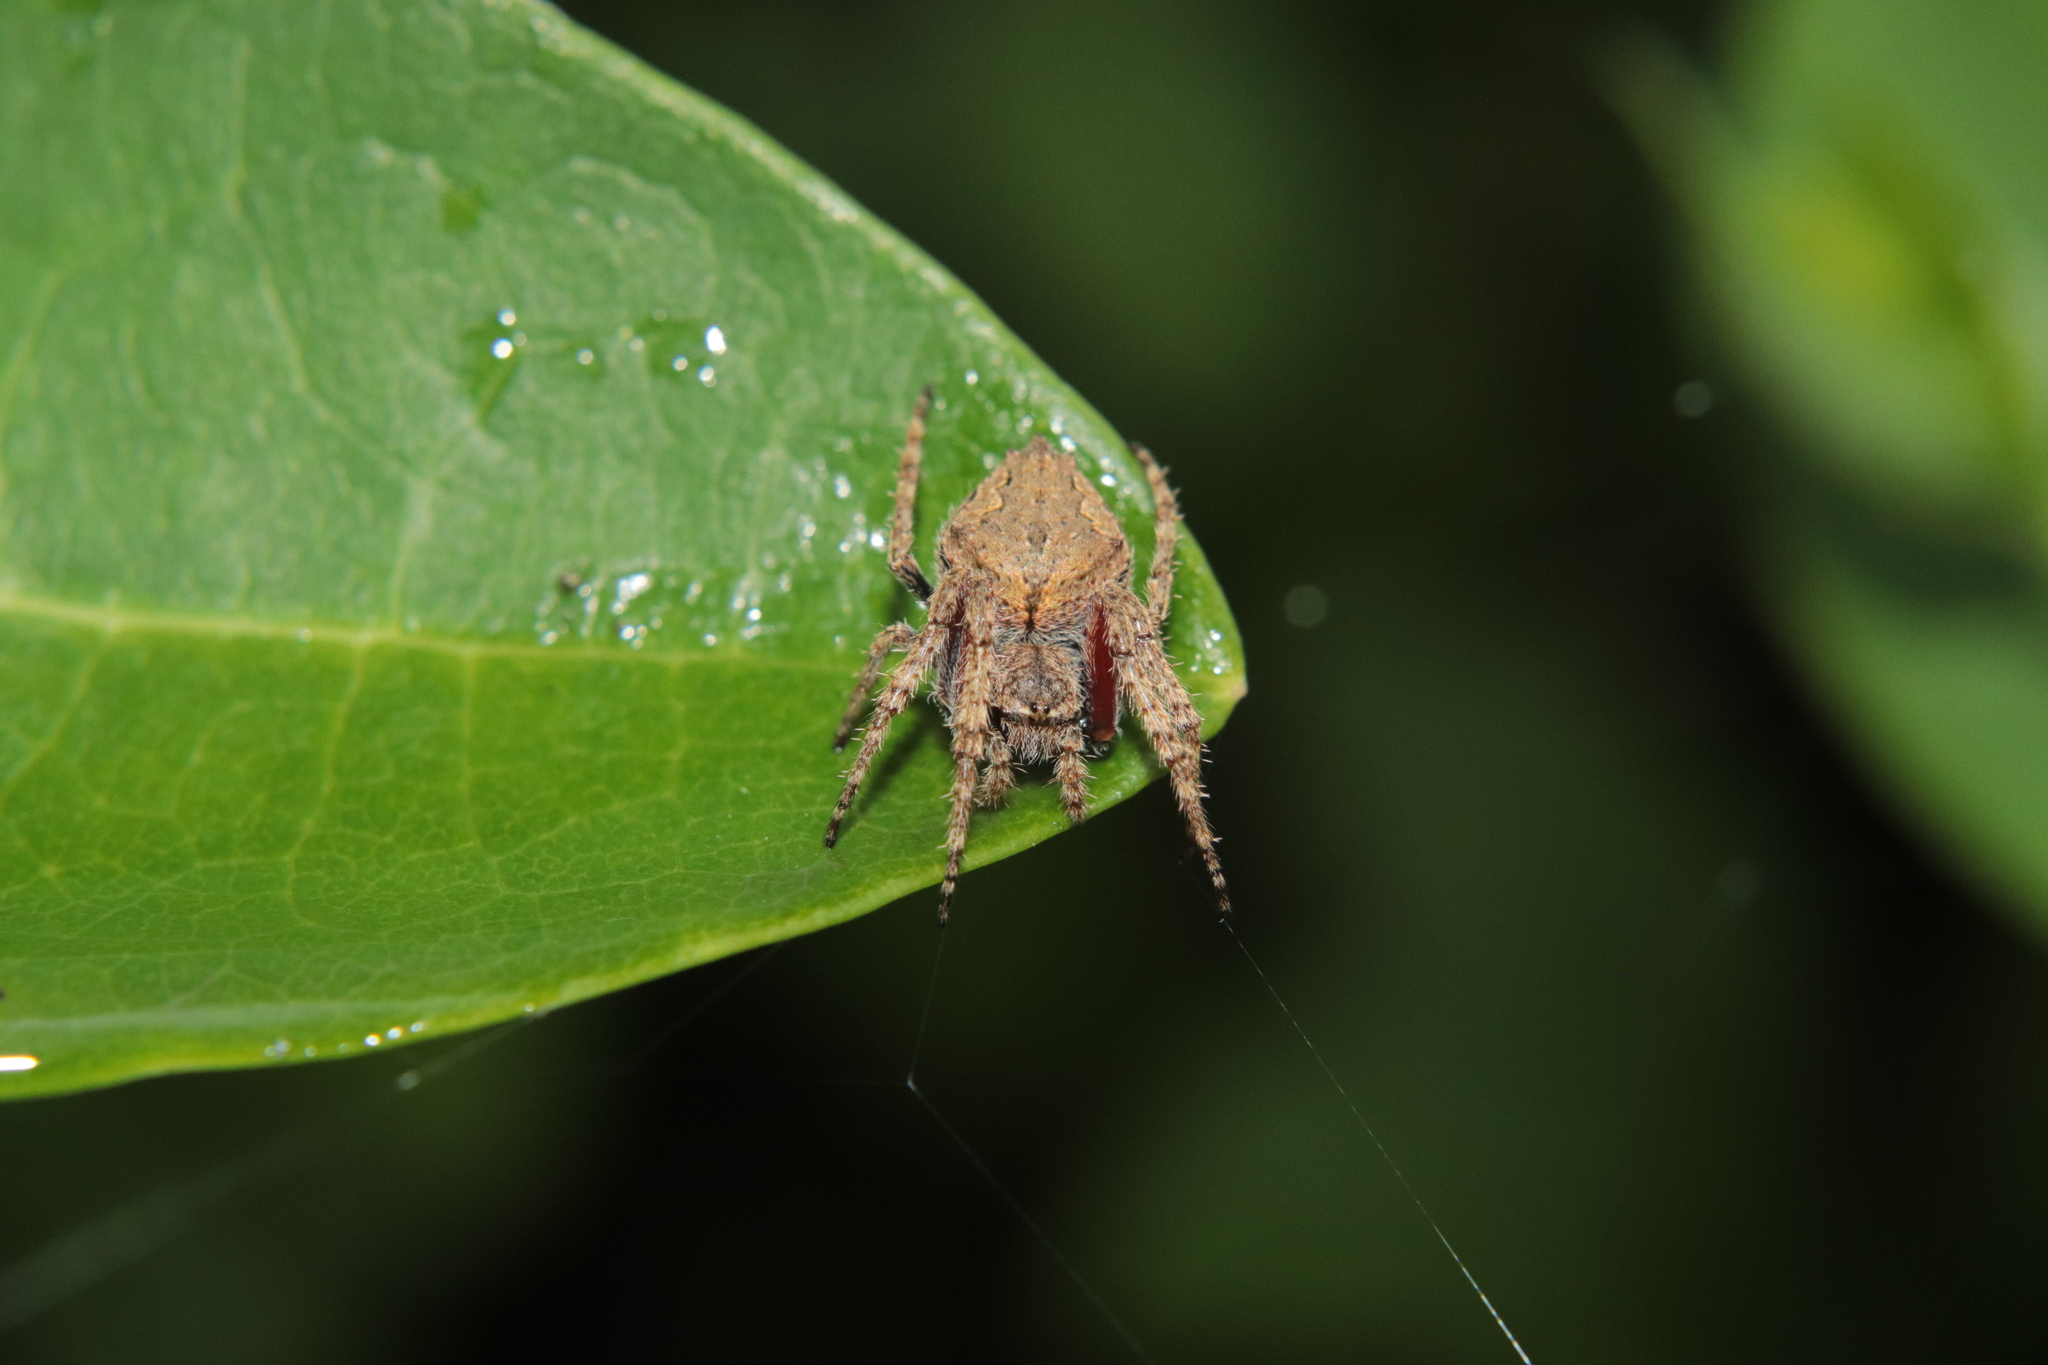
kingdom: Animalia
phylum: Arthropoda
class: Arachnida
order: Araneae
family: Araneidae
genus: Eriophora
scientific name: Eriophora pustulosa
